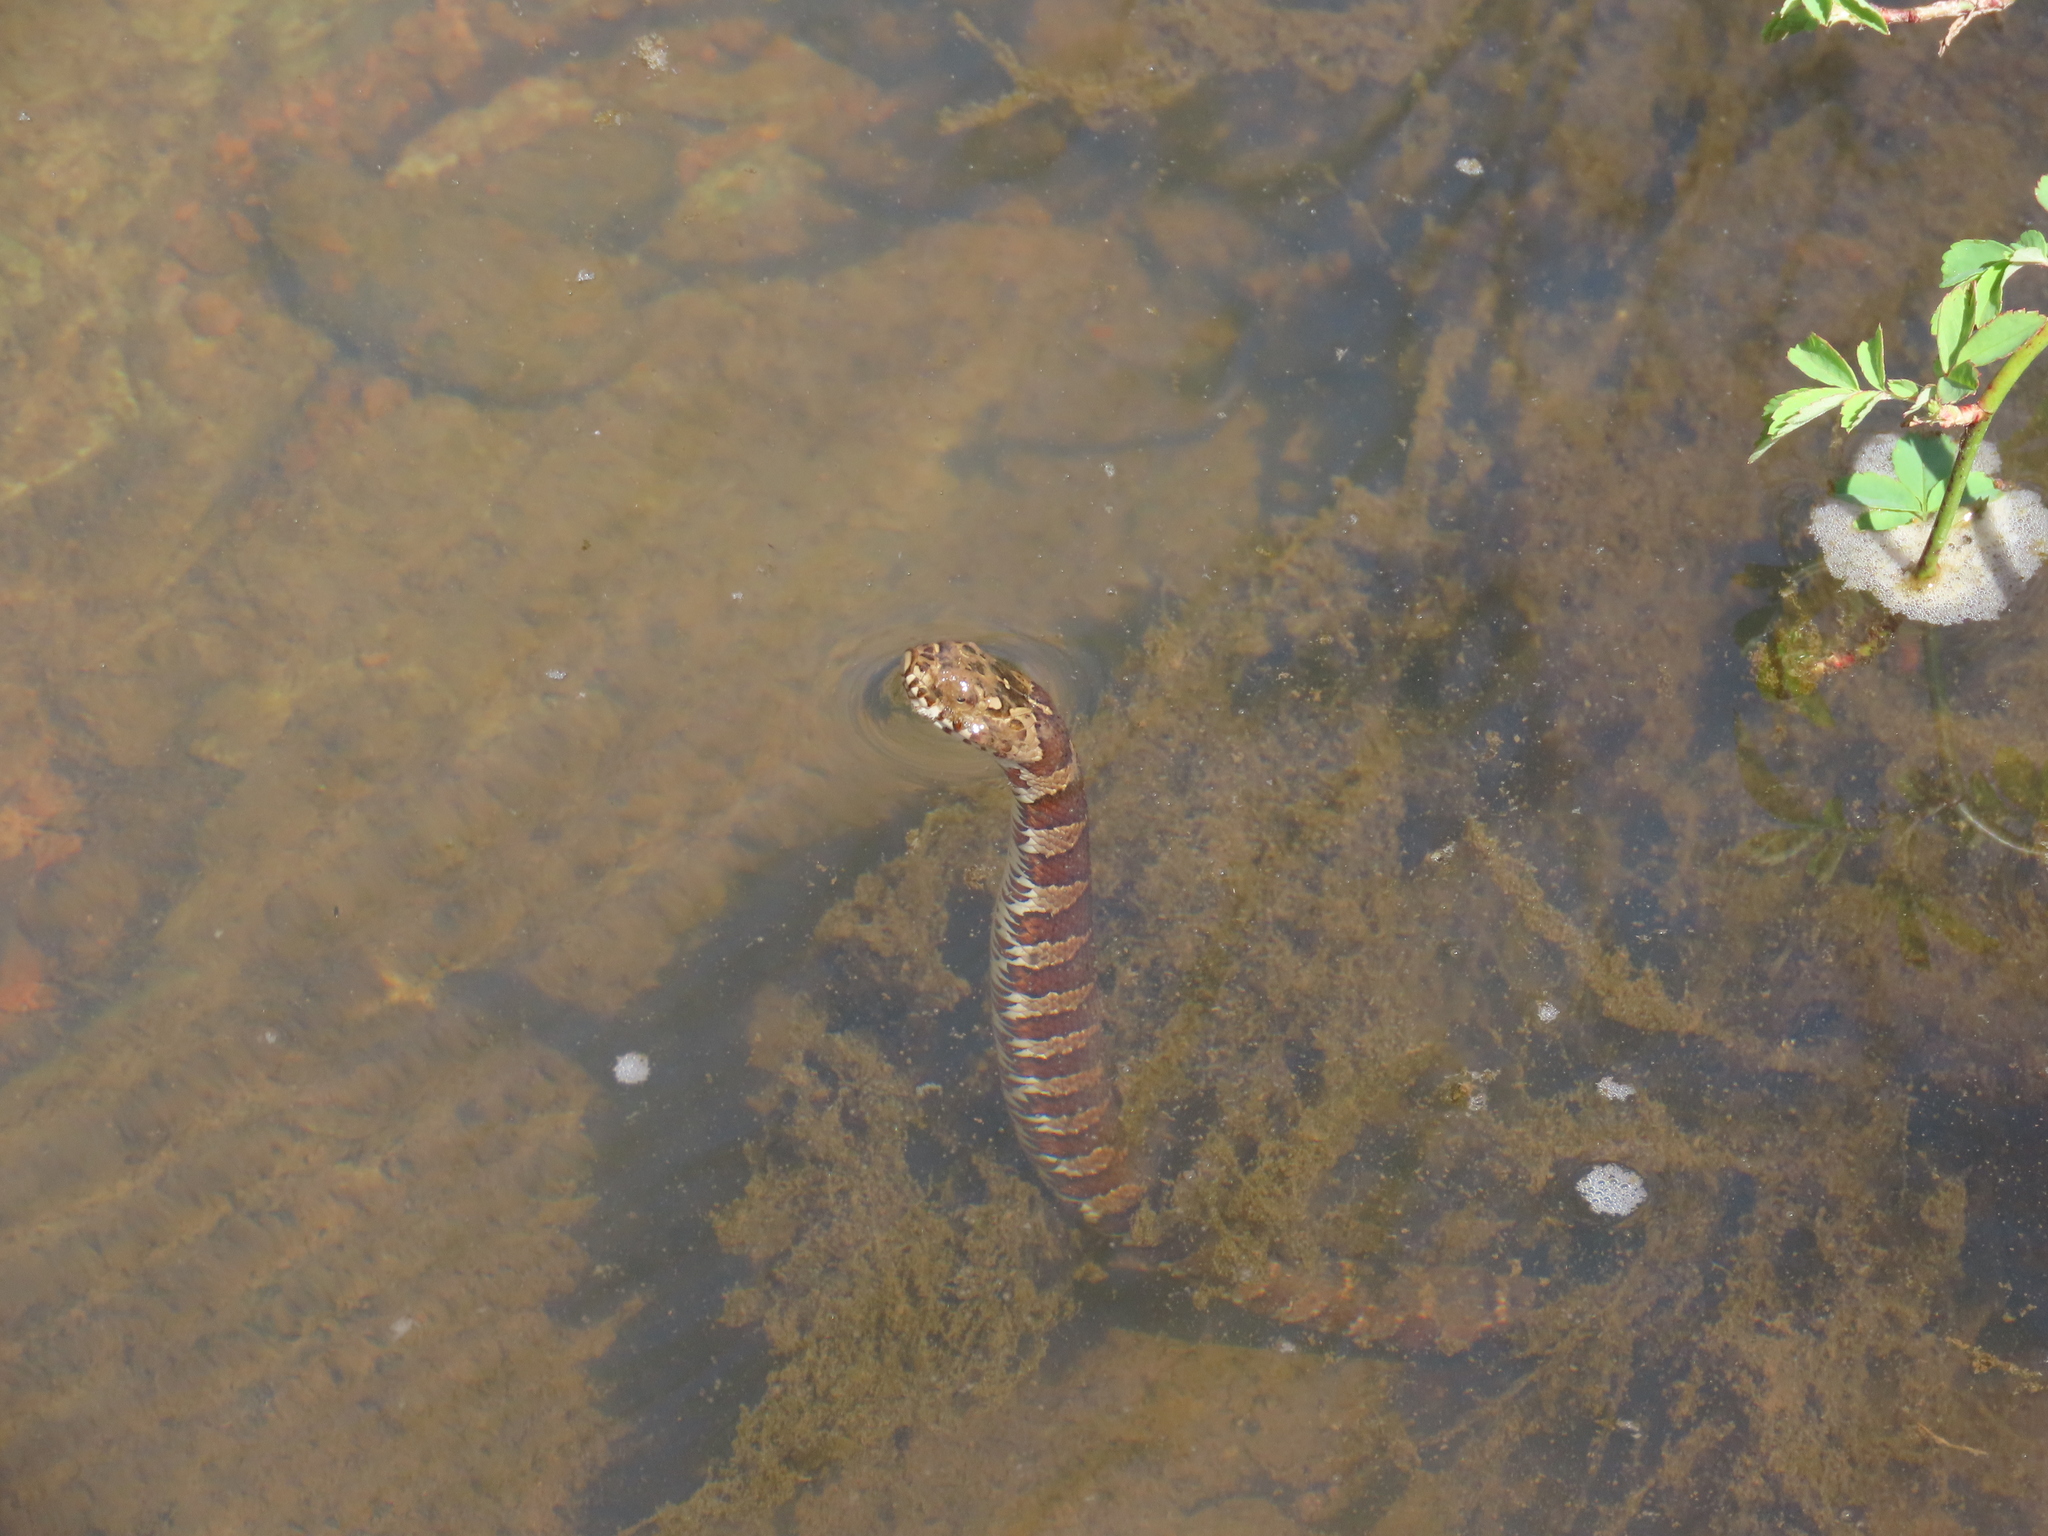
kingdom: Animalia
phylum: Chordata
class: Squamata
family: Colubridae
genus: Nerodia
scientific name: Nerodia sipedon
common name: Northern water snake
